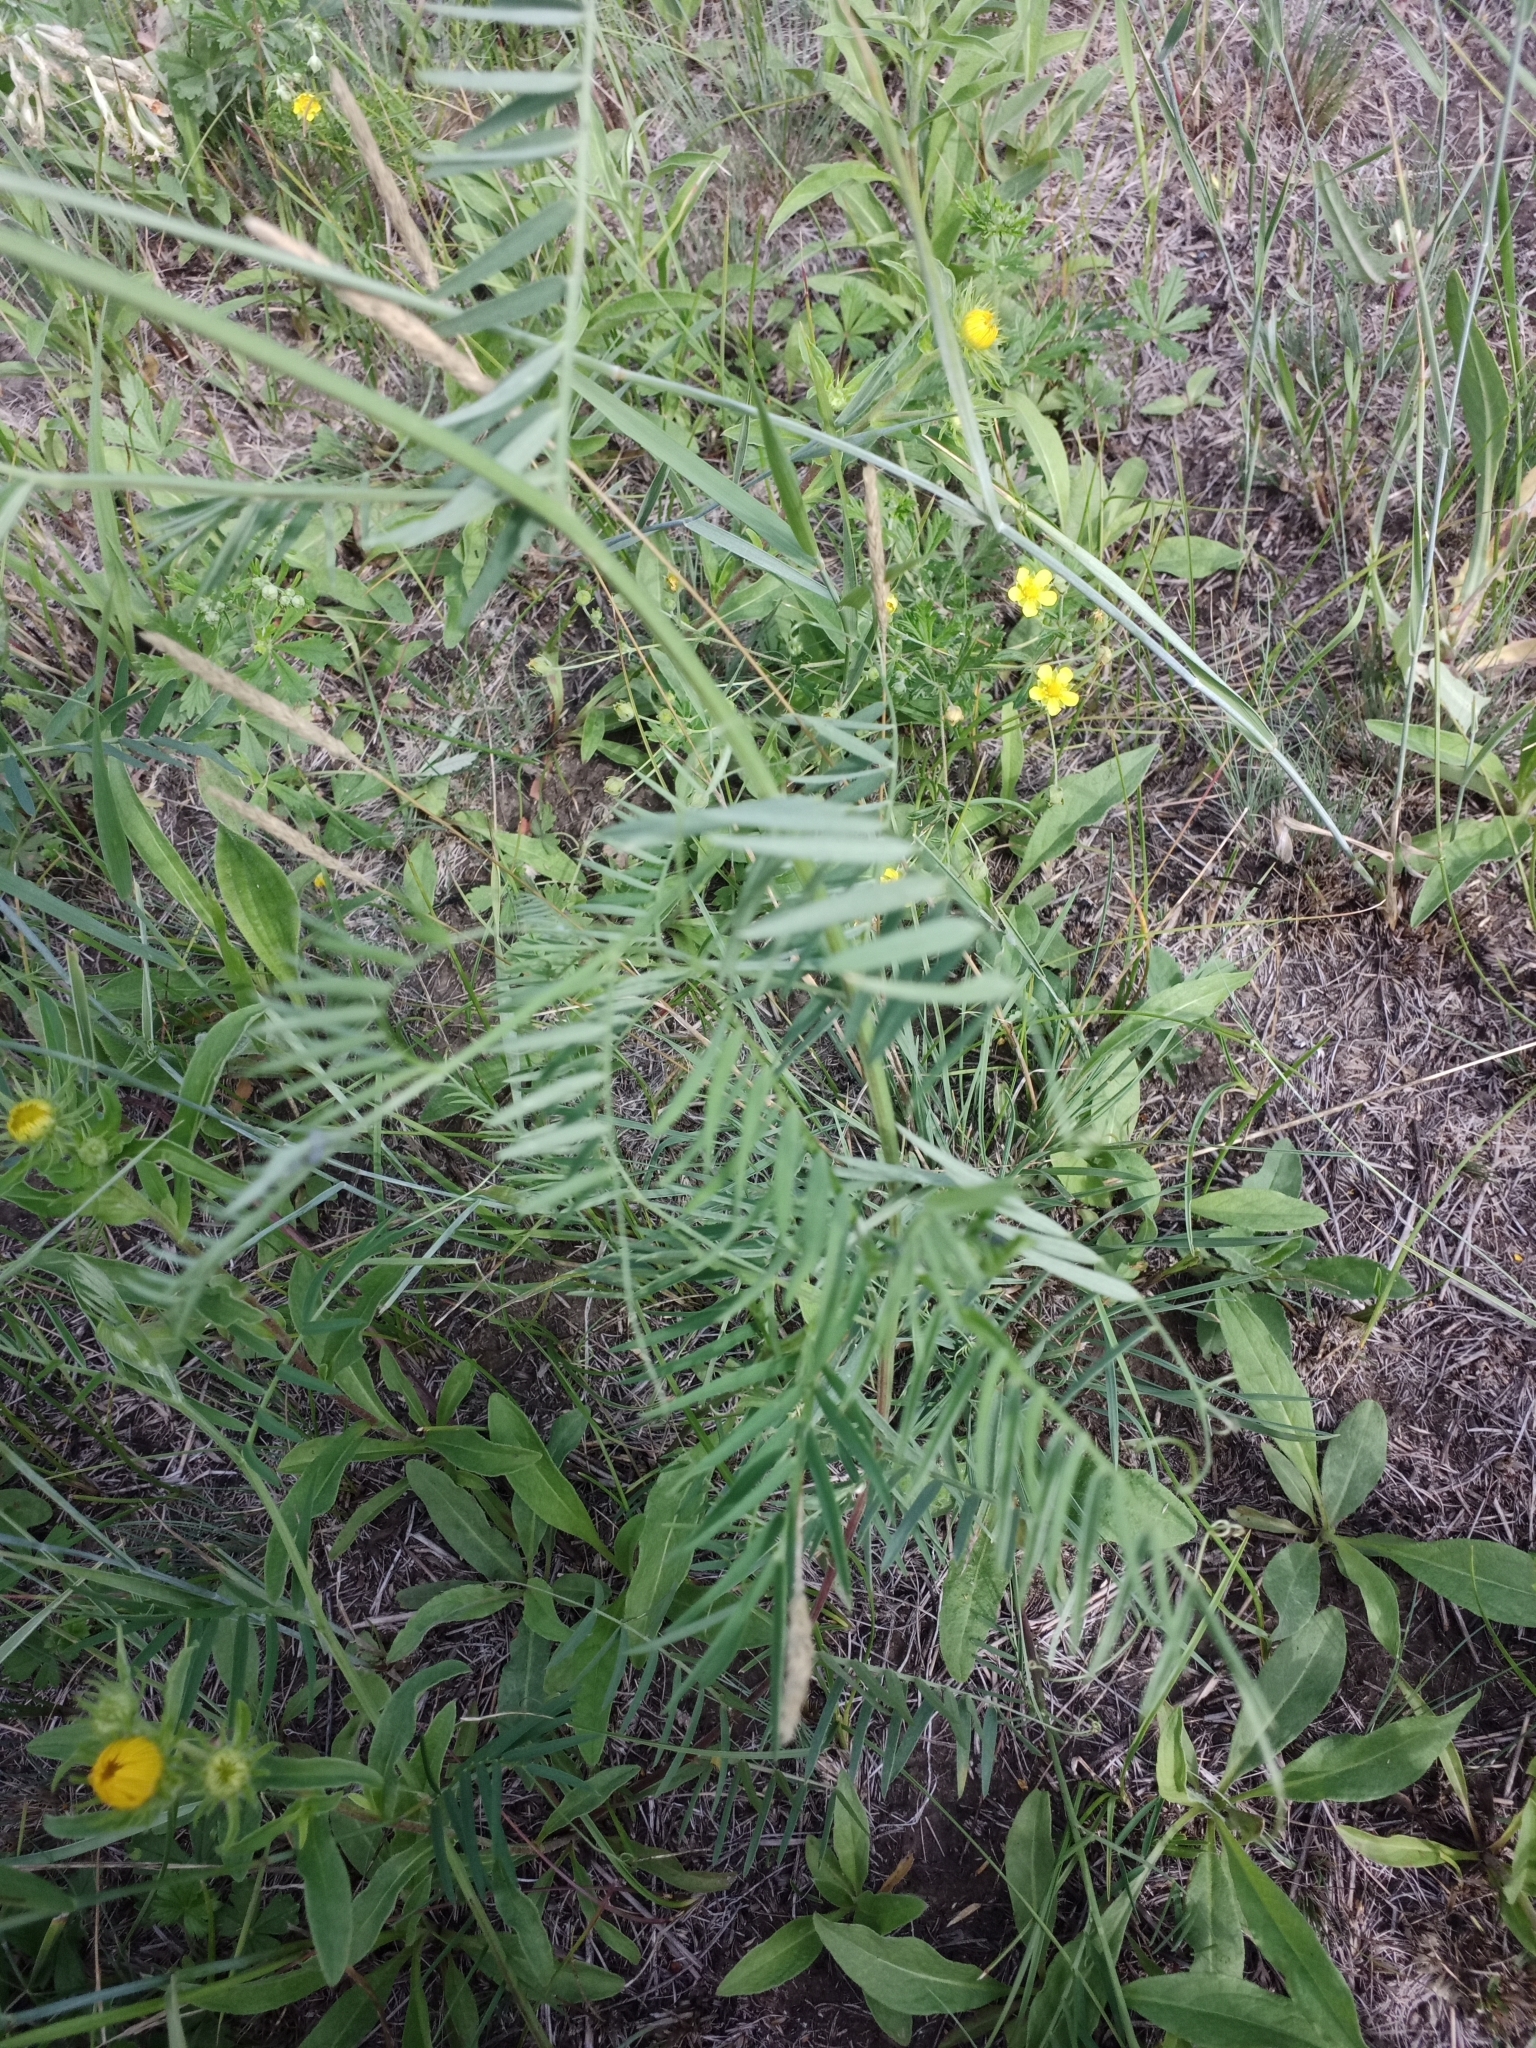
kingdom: Plantae
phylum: Tracheophyta
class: Magnoliopsida
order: Fabales
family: Fabaceae
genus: Vicia
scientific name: Vicia cracca
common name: Bird vetch
